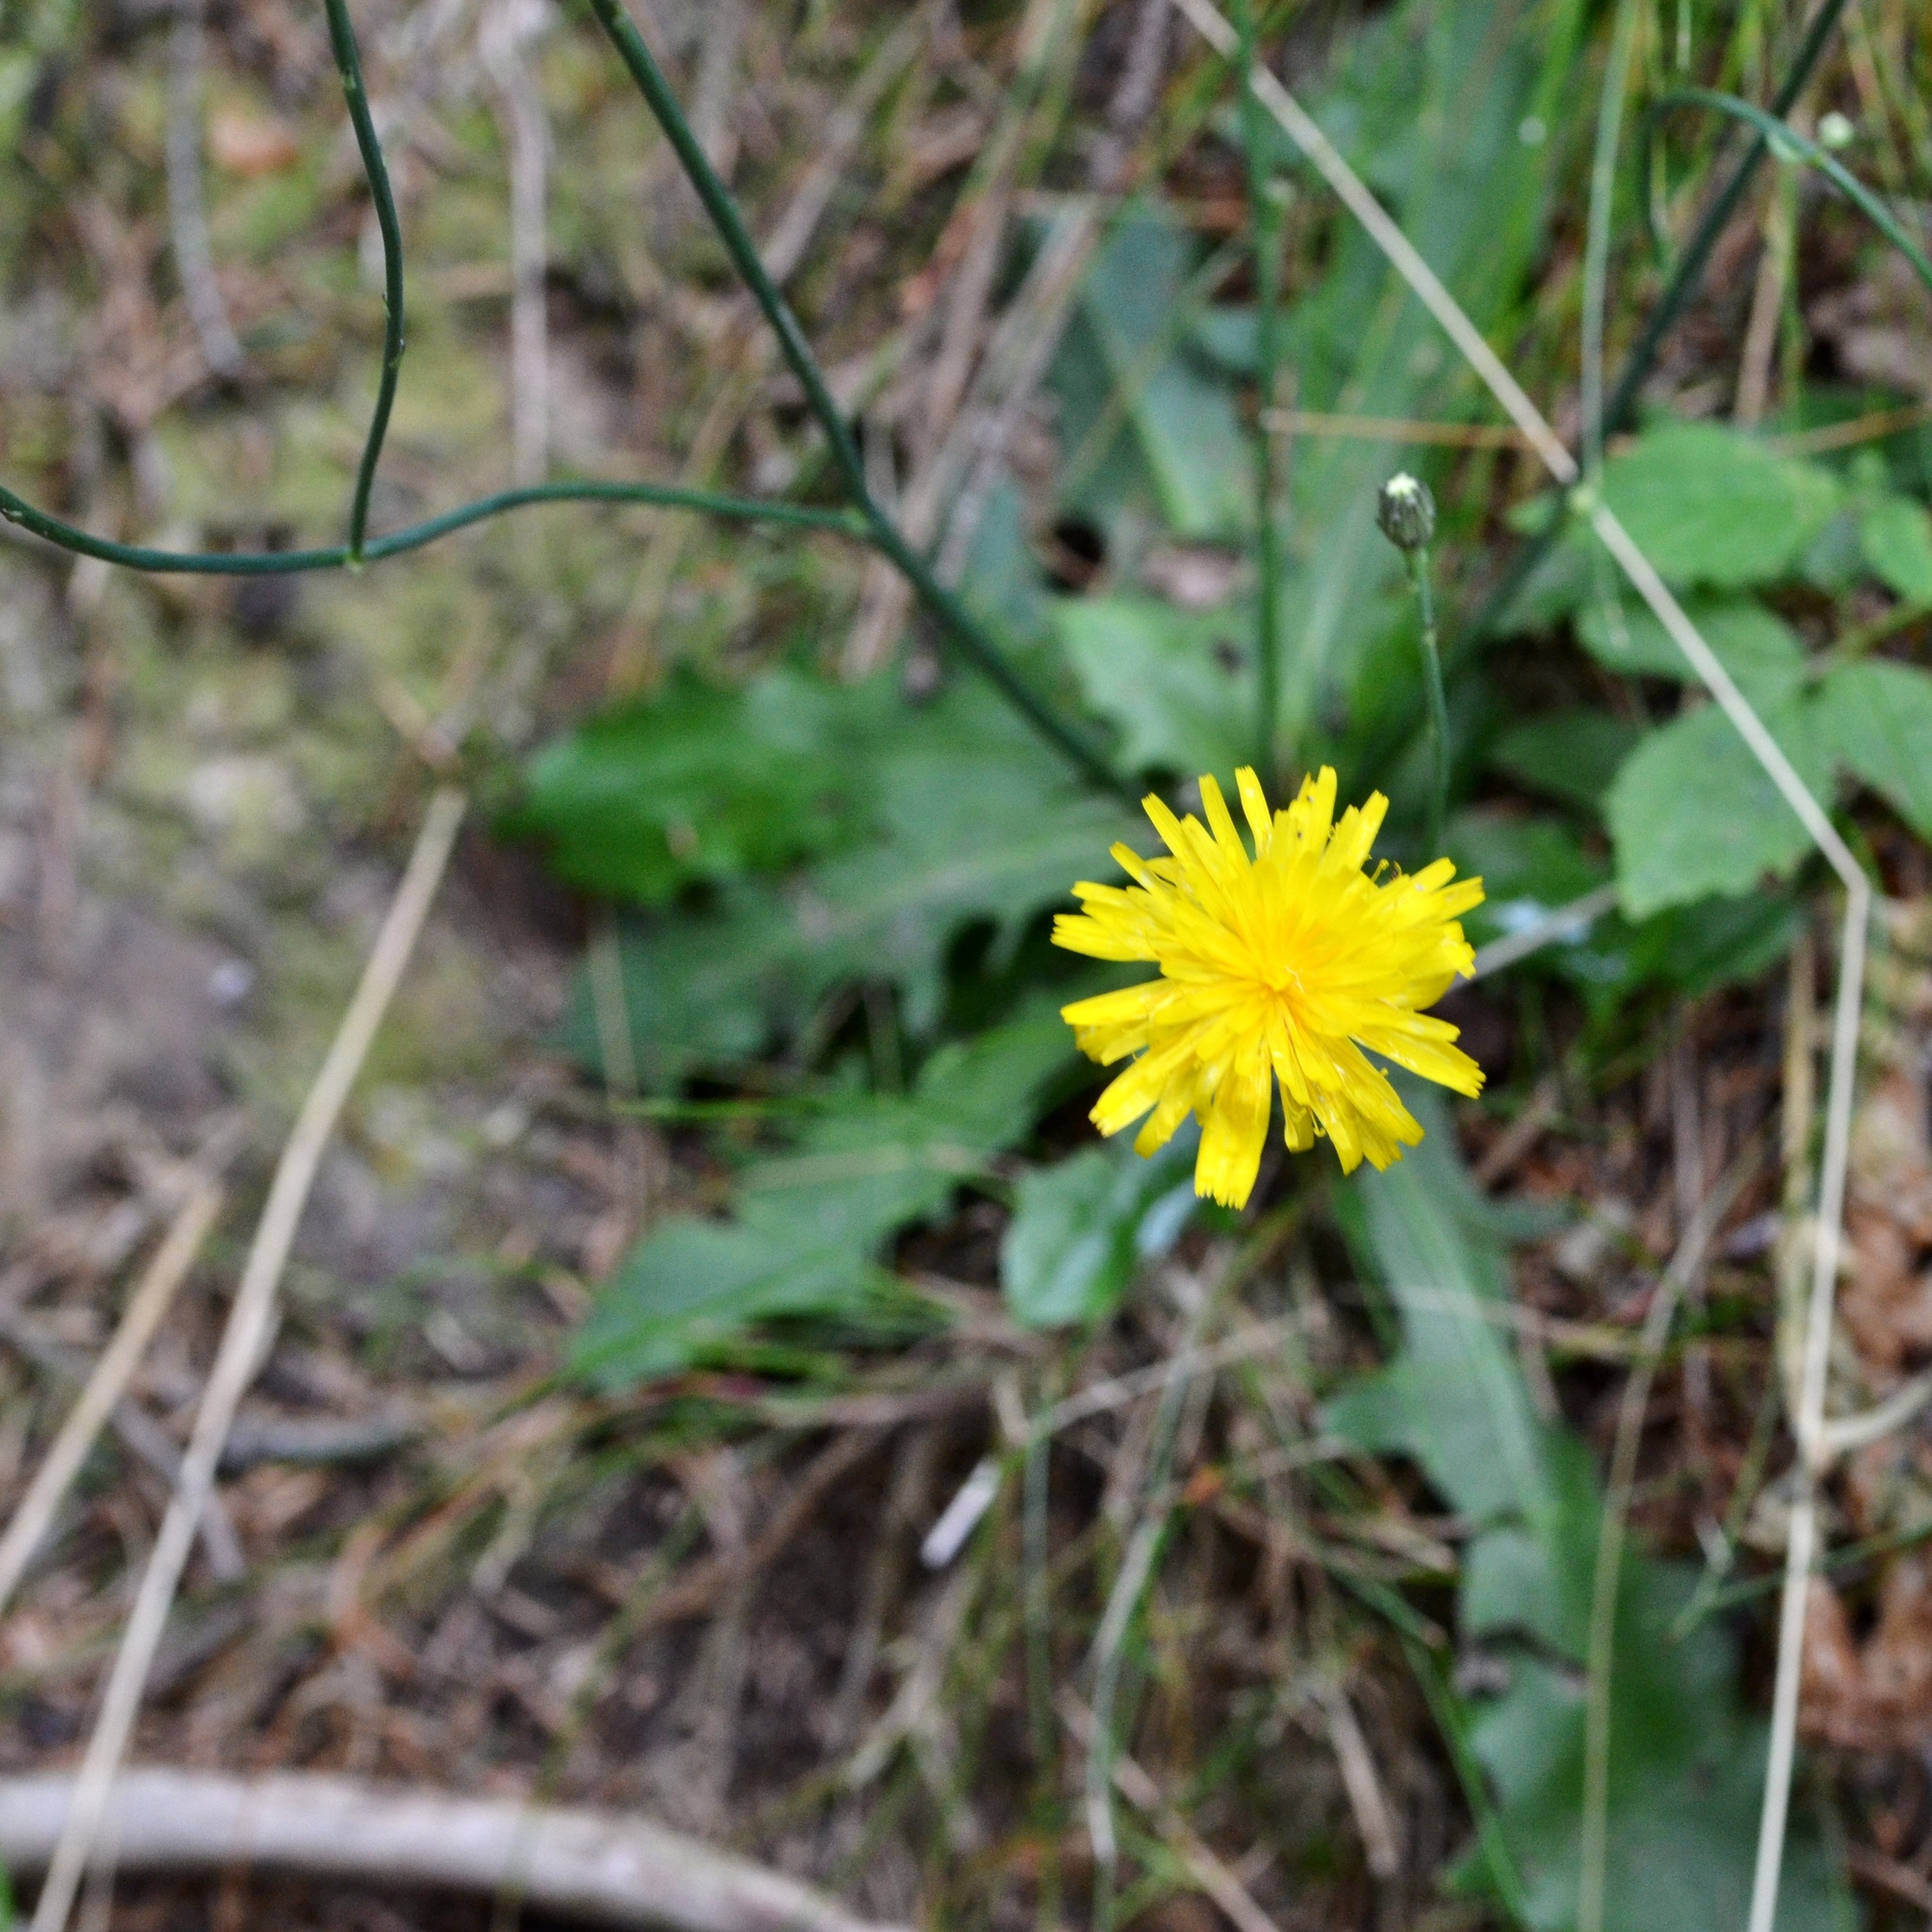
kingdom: Plantae
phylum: Tracheophyta
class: Magnoliopsida
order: Asterales
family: Asteraceae
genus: Hypochaeris
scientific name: Hypochaeris radicata
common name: Flatweed
